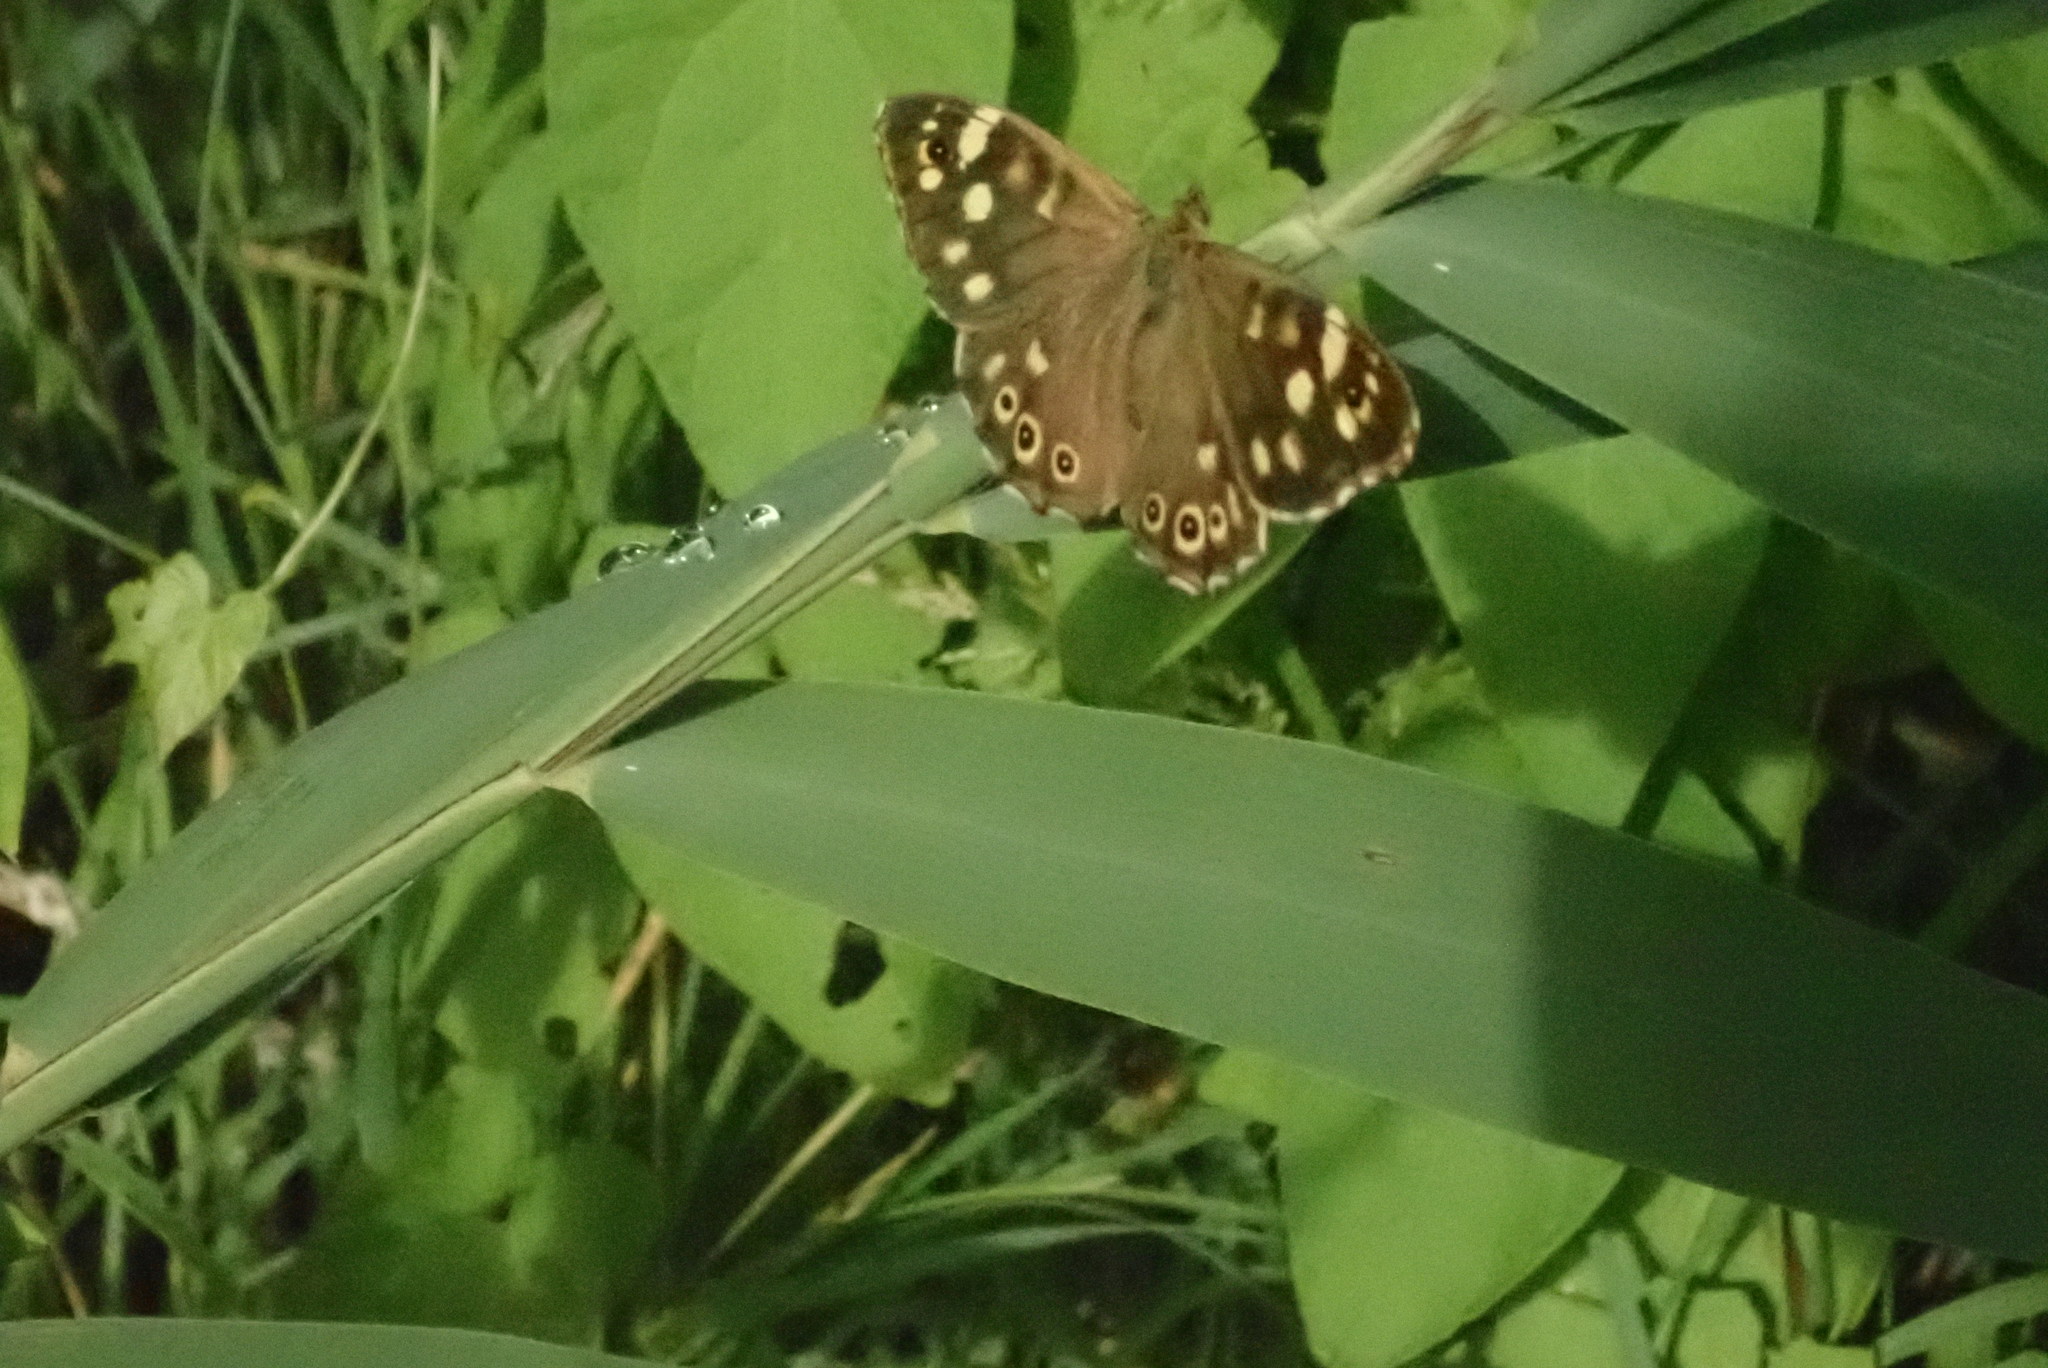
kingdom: Animalia
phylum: Arthropoda
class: Insecta
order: Lepidoptera
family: Nymphalidae
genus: Pararge
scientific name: Pararge aegeria
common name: Speckled wood
